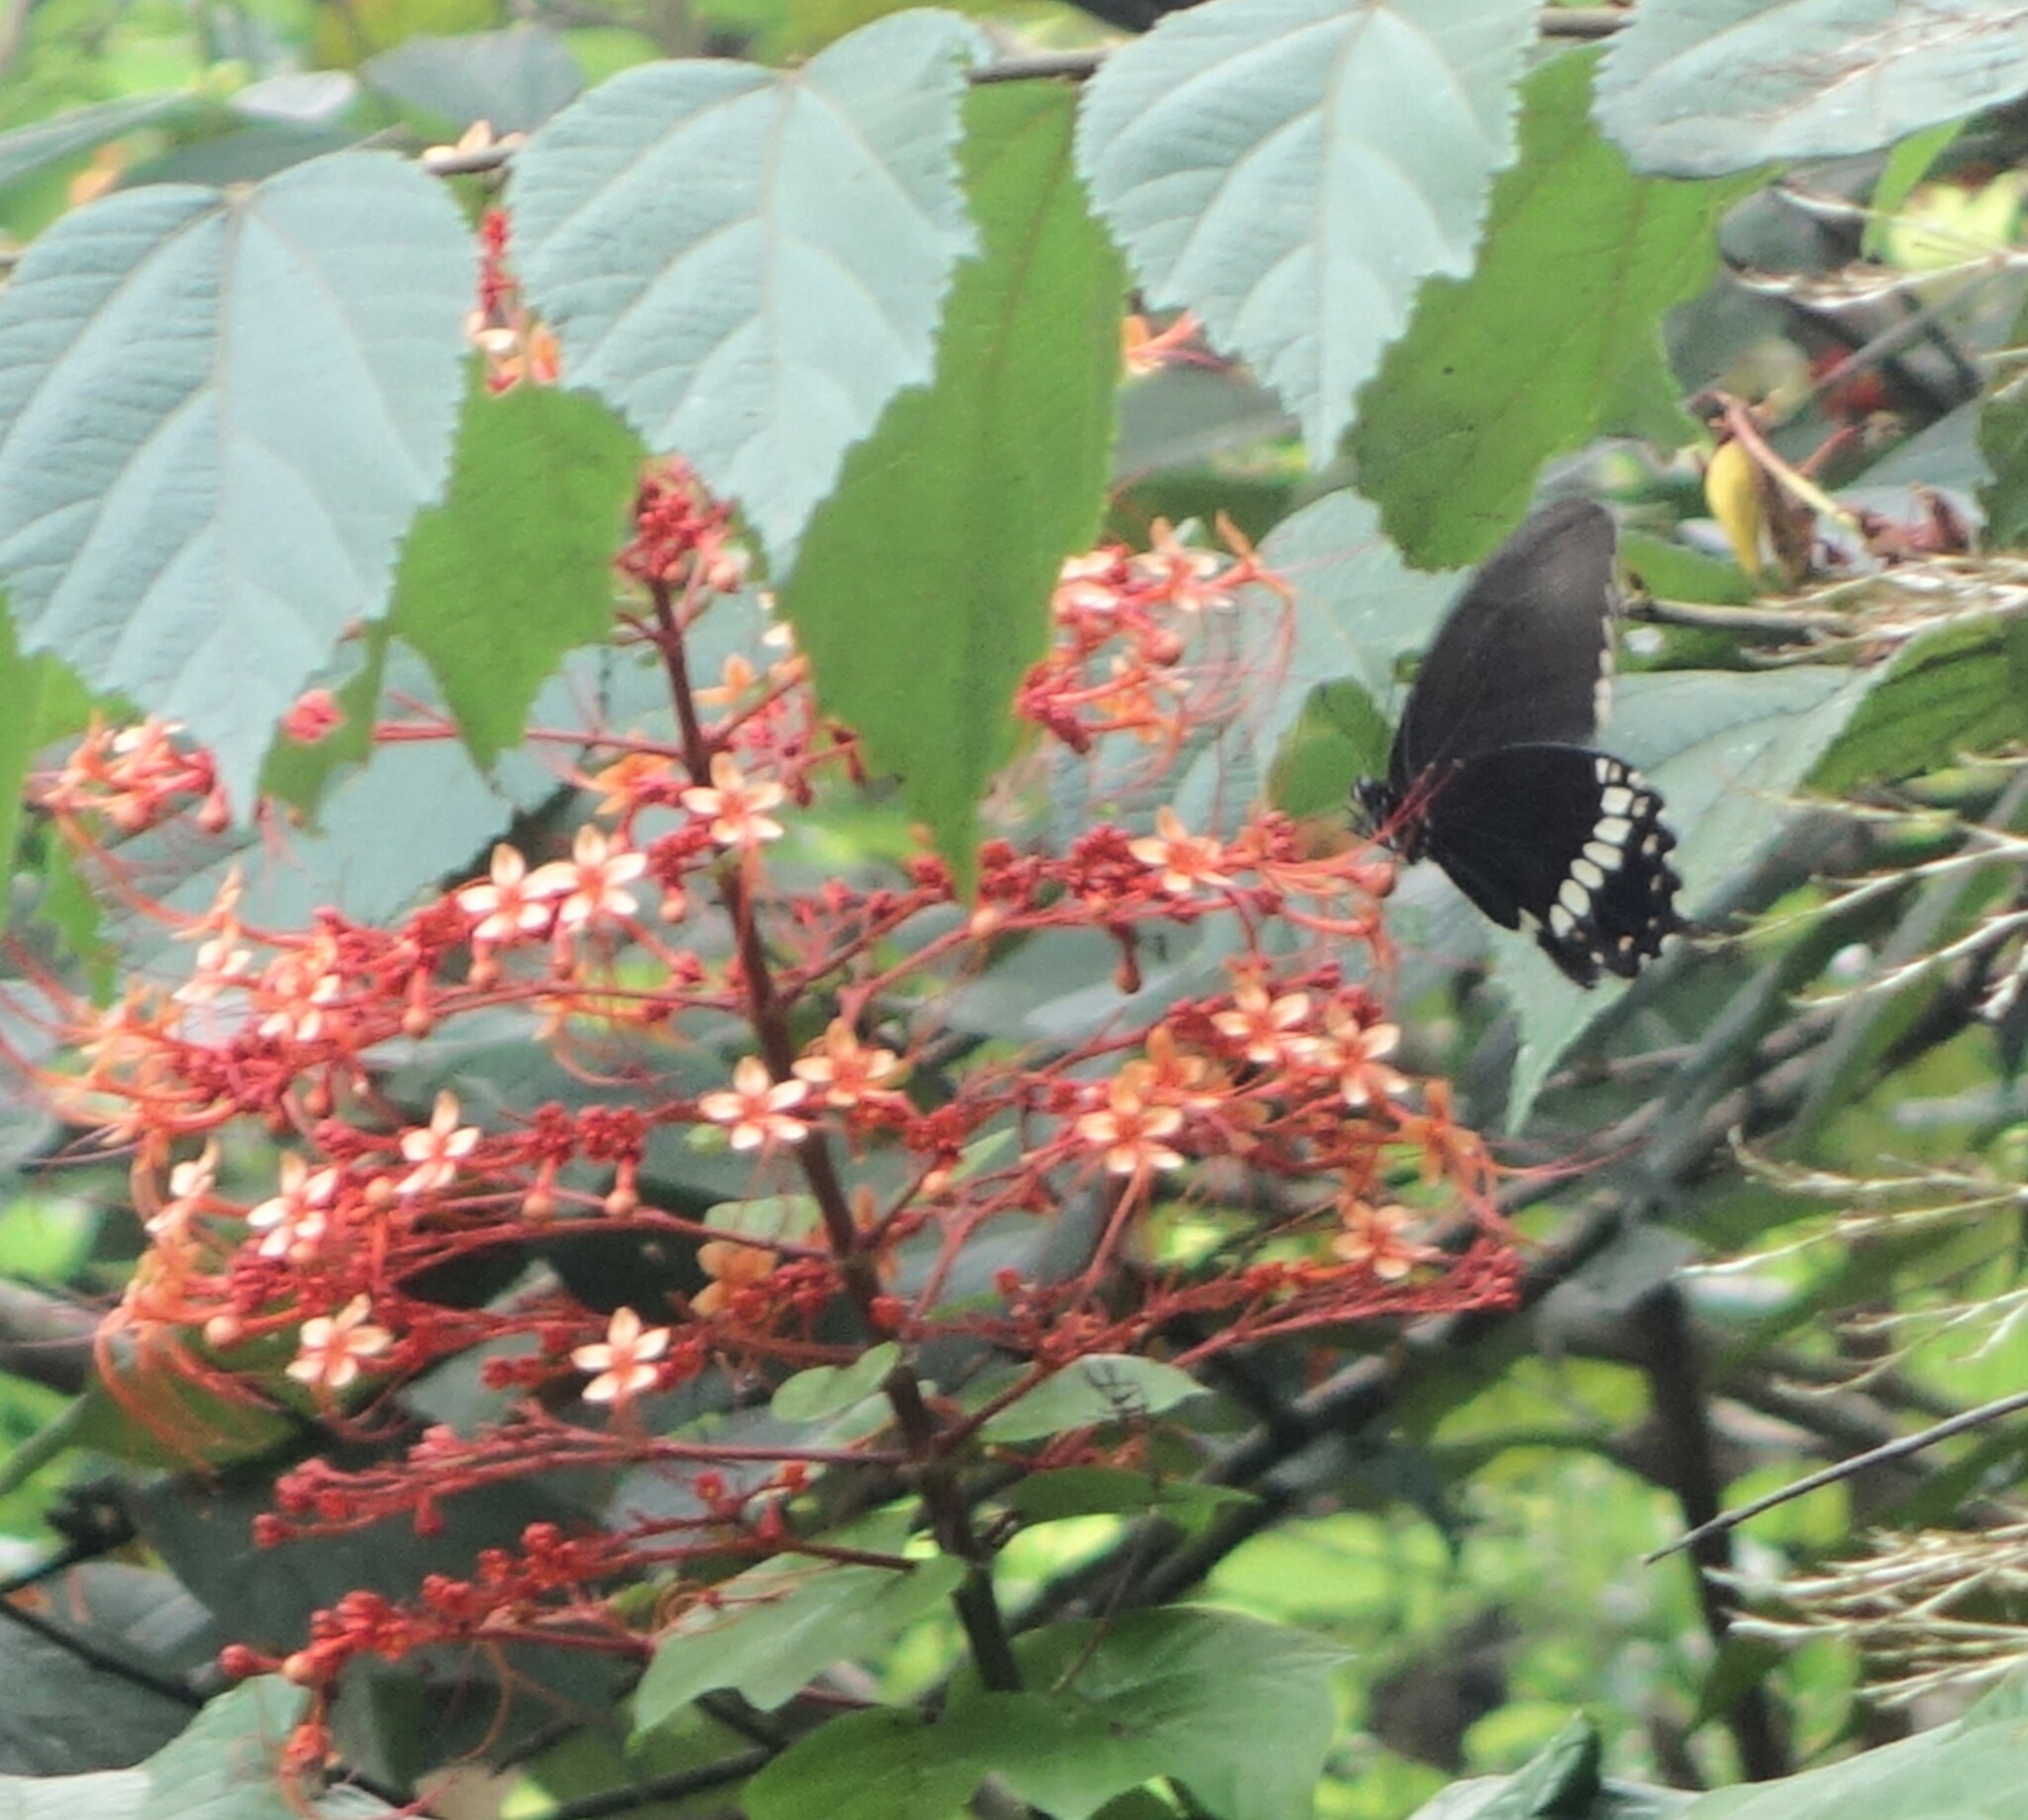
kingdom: Animalia
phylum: Arthropoda
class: Insecta
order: Lepidoptera
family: Papilionidae
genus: Papilio
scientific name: Papilio polytes
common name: Common mormon
